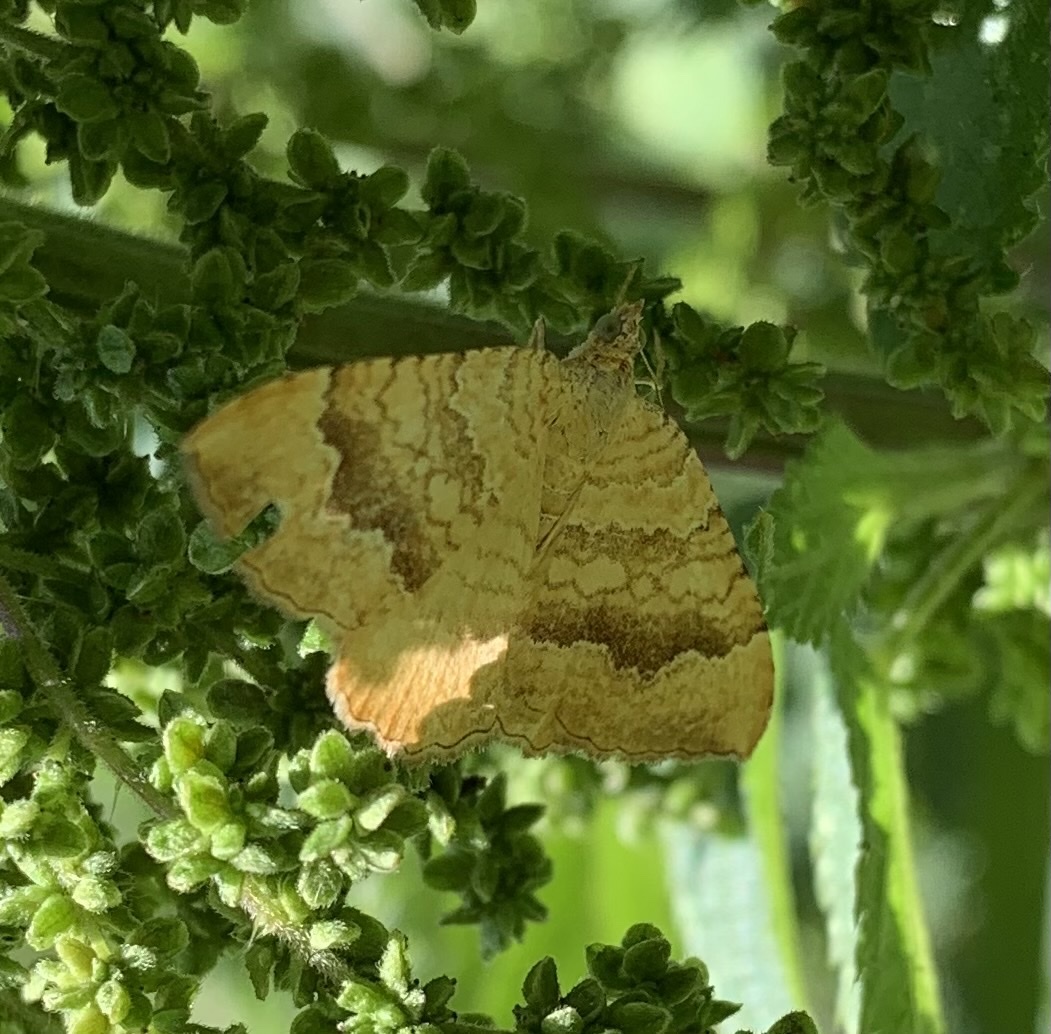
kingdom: Animalia
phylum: Arthropoda
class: Insecta
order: Lepidoptera
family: Geometridae
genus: Camptogramma
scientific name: Camptogramma bilineata
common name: Yellow shell
